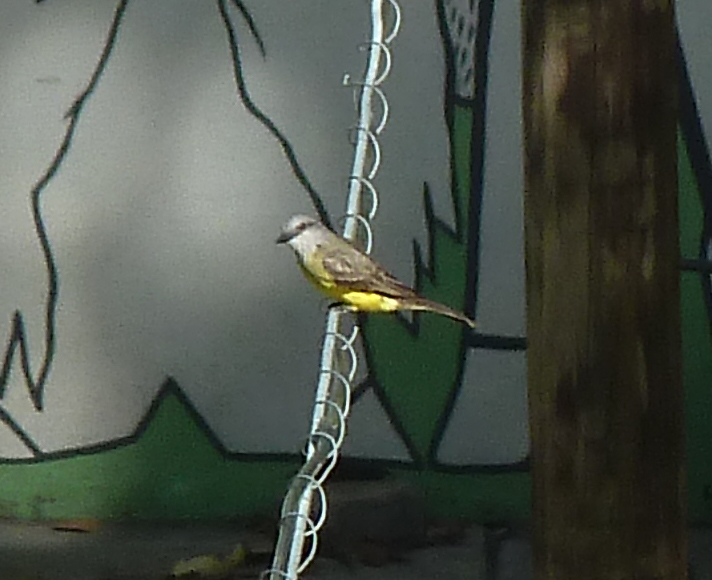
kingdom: Animalia
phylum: Chordata
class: Aves
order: Passeriformes
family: Tyrannidae
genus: Tyrannus
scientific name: Tyrannus melancholicus
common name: Tropical kingbird
